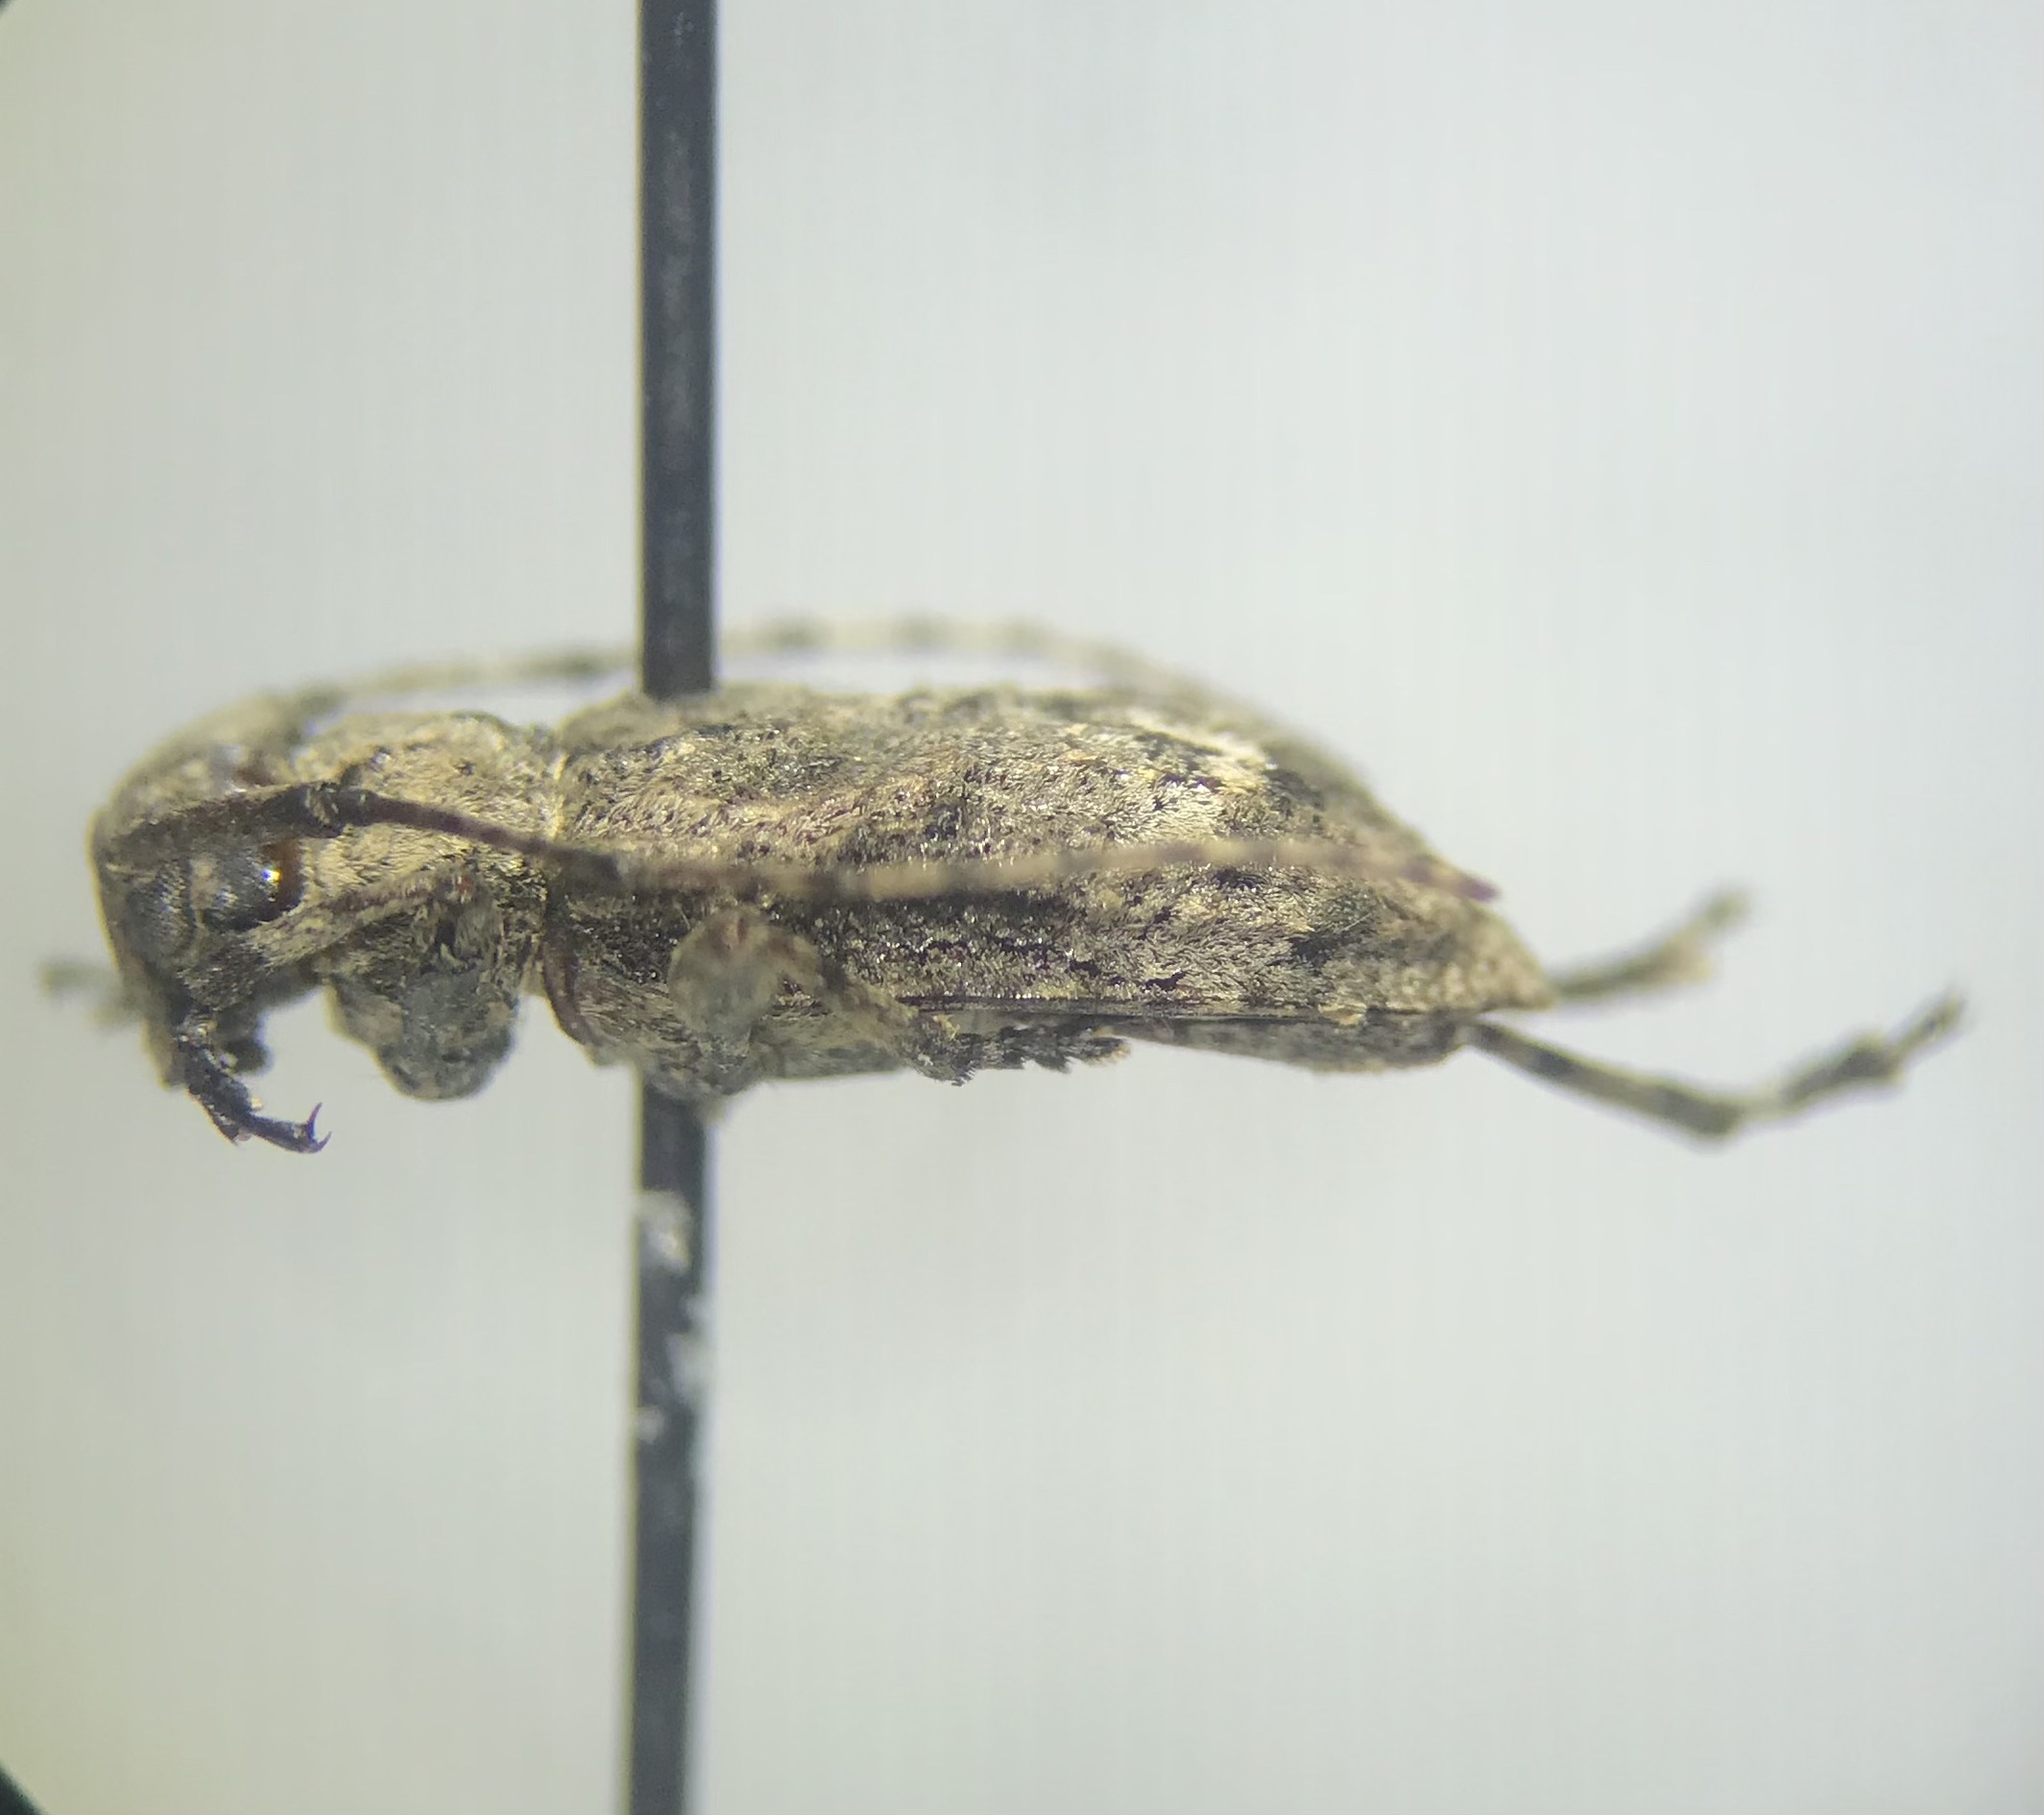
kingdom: Animalia
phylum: Arthropoda
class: Insecta
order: Coleoptera
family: Cerambycidae
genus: Leptostylus
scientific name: Leptostylus transversus
